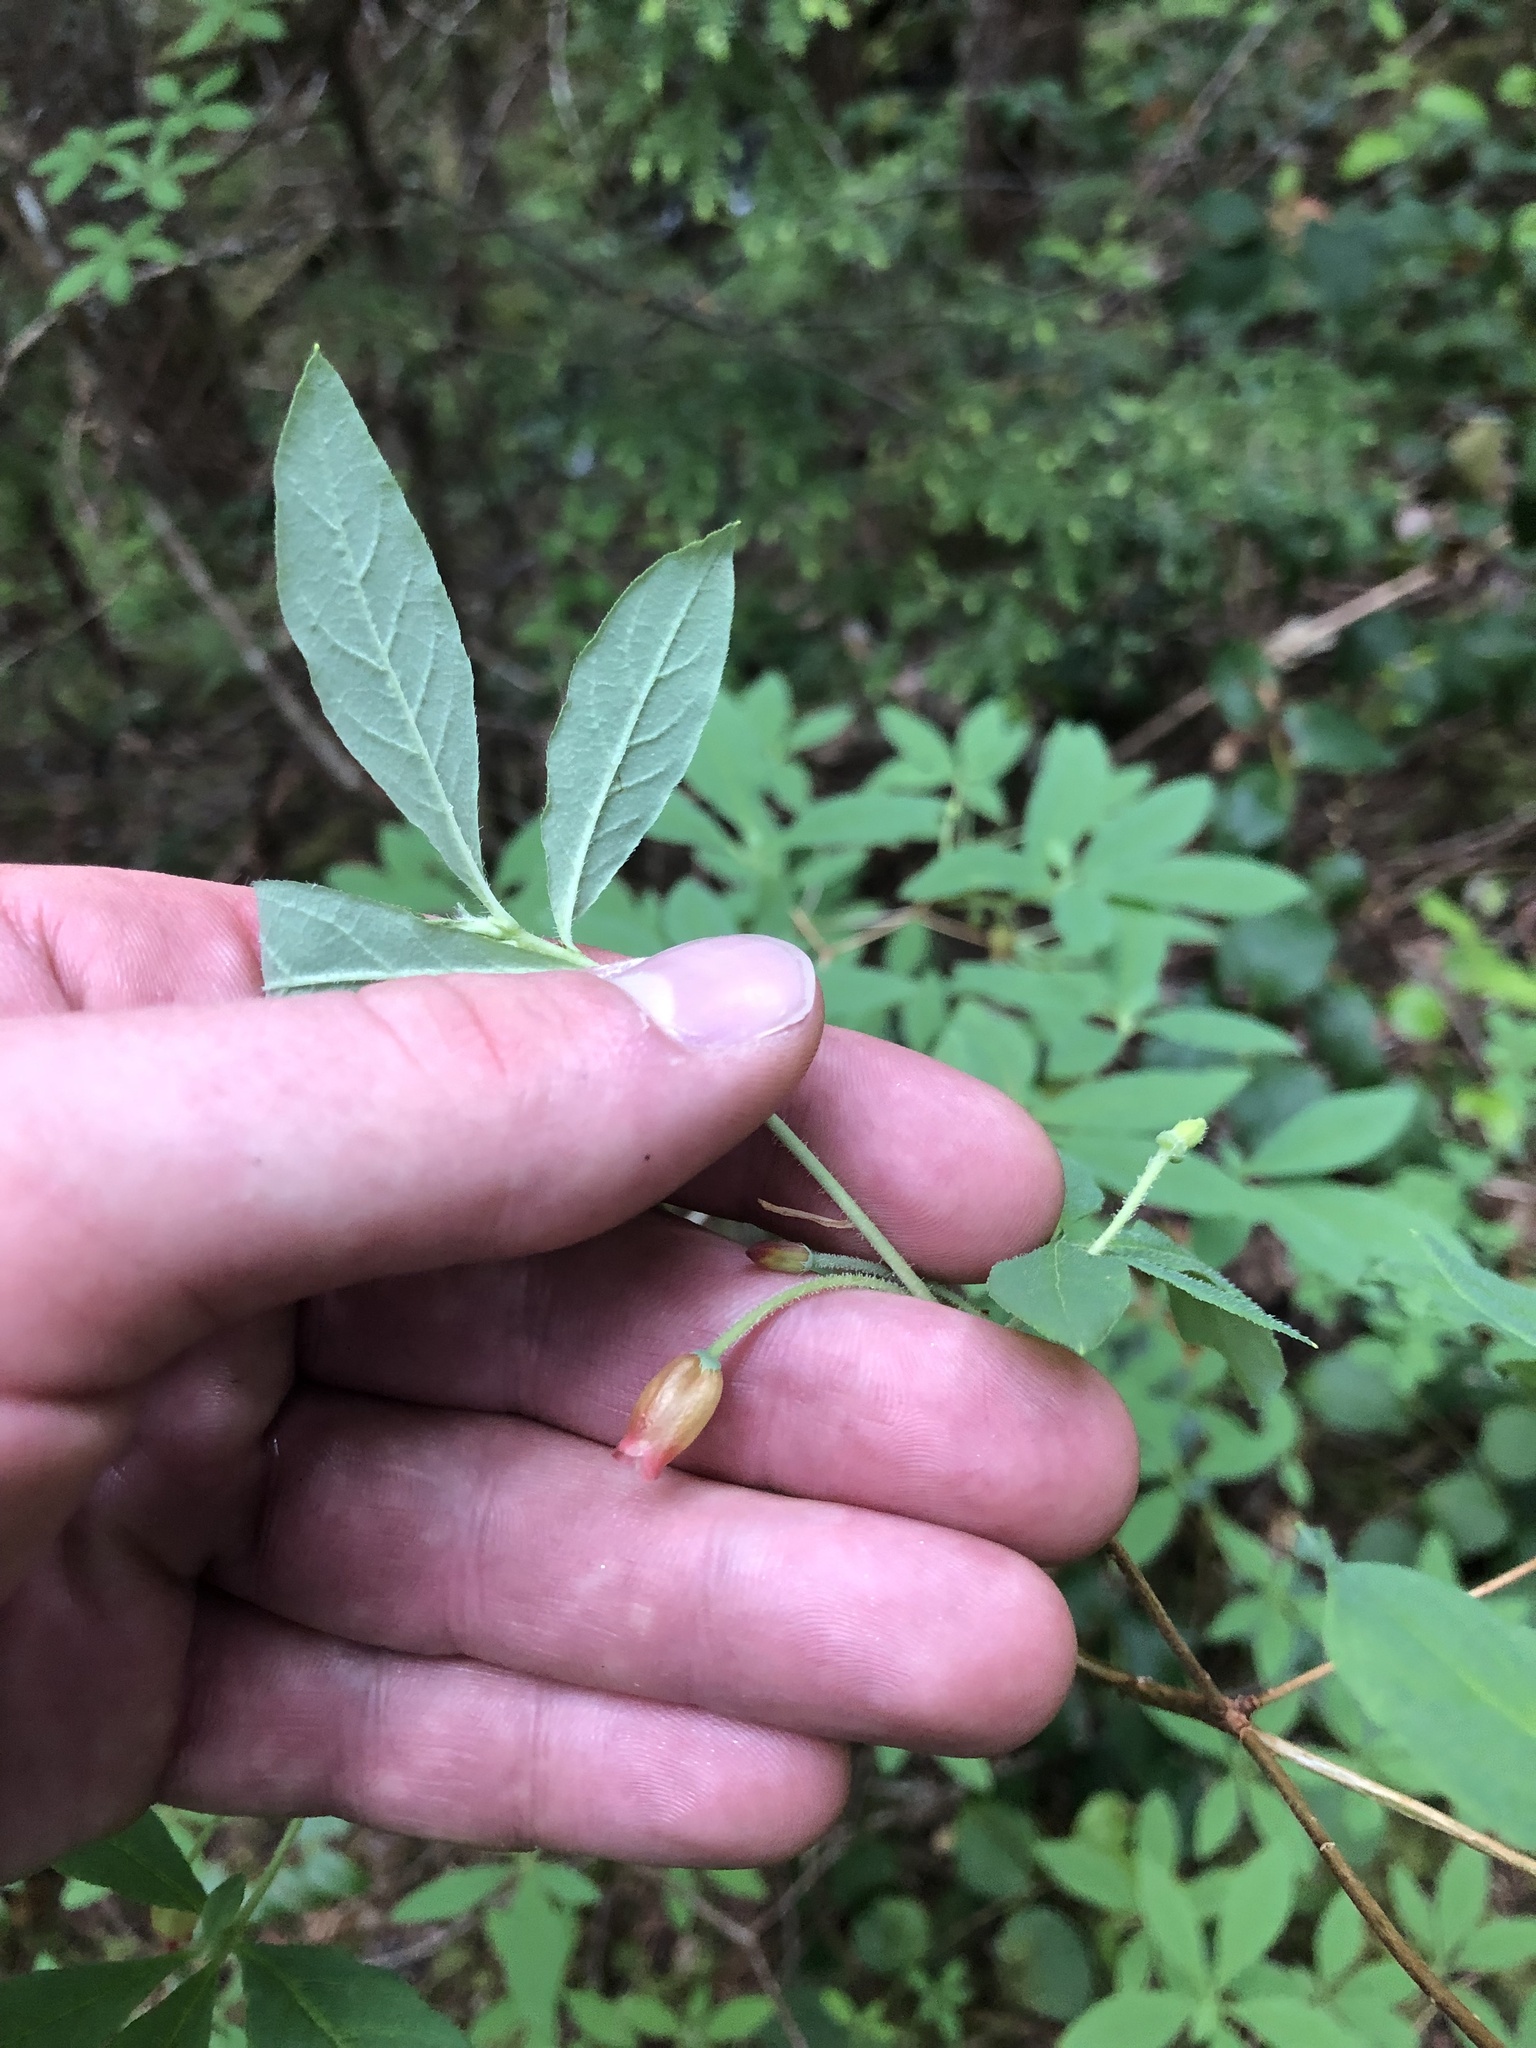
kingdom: Plantae
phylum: Tracheophyta
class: Magnoliopsida
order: Ericales
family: Ericaceae
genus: Rhododendron
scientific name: Rhododendron menziesii
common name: Pacific menziesia
